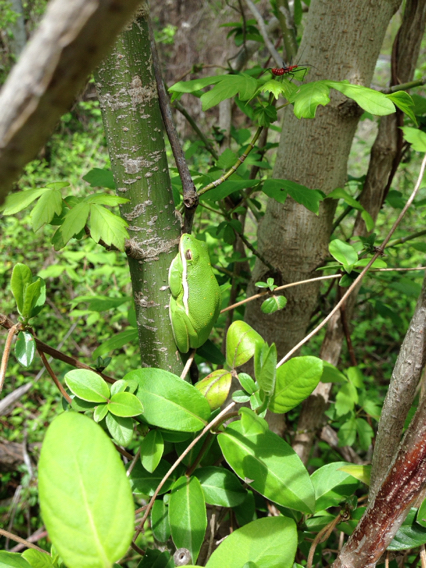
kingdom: Animalia
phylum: Chordata
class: Amphibia
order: Anura
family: Hylidae
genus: Dryophytes
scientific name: Dryophytes cinereus
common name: Green treefrog
